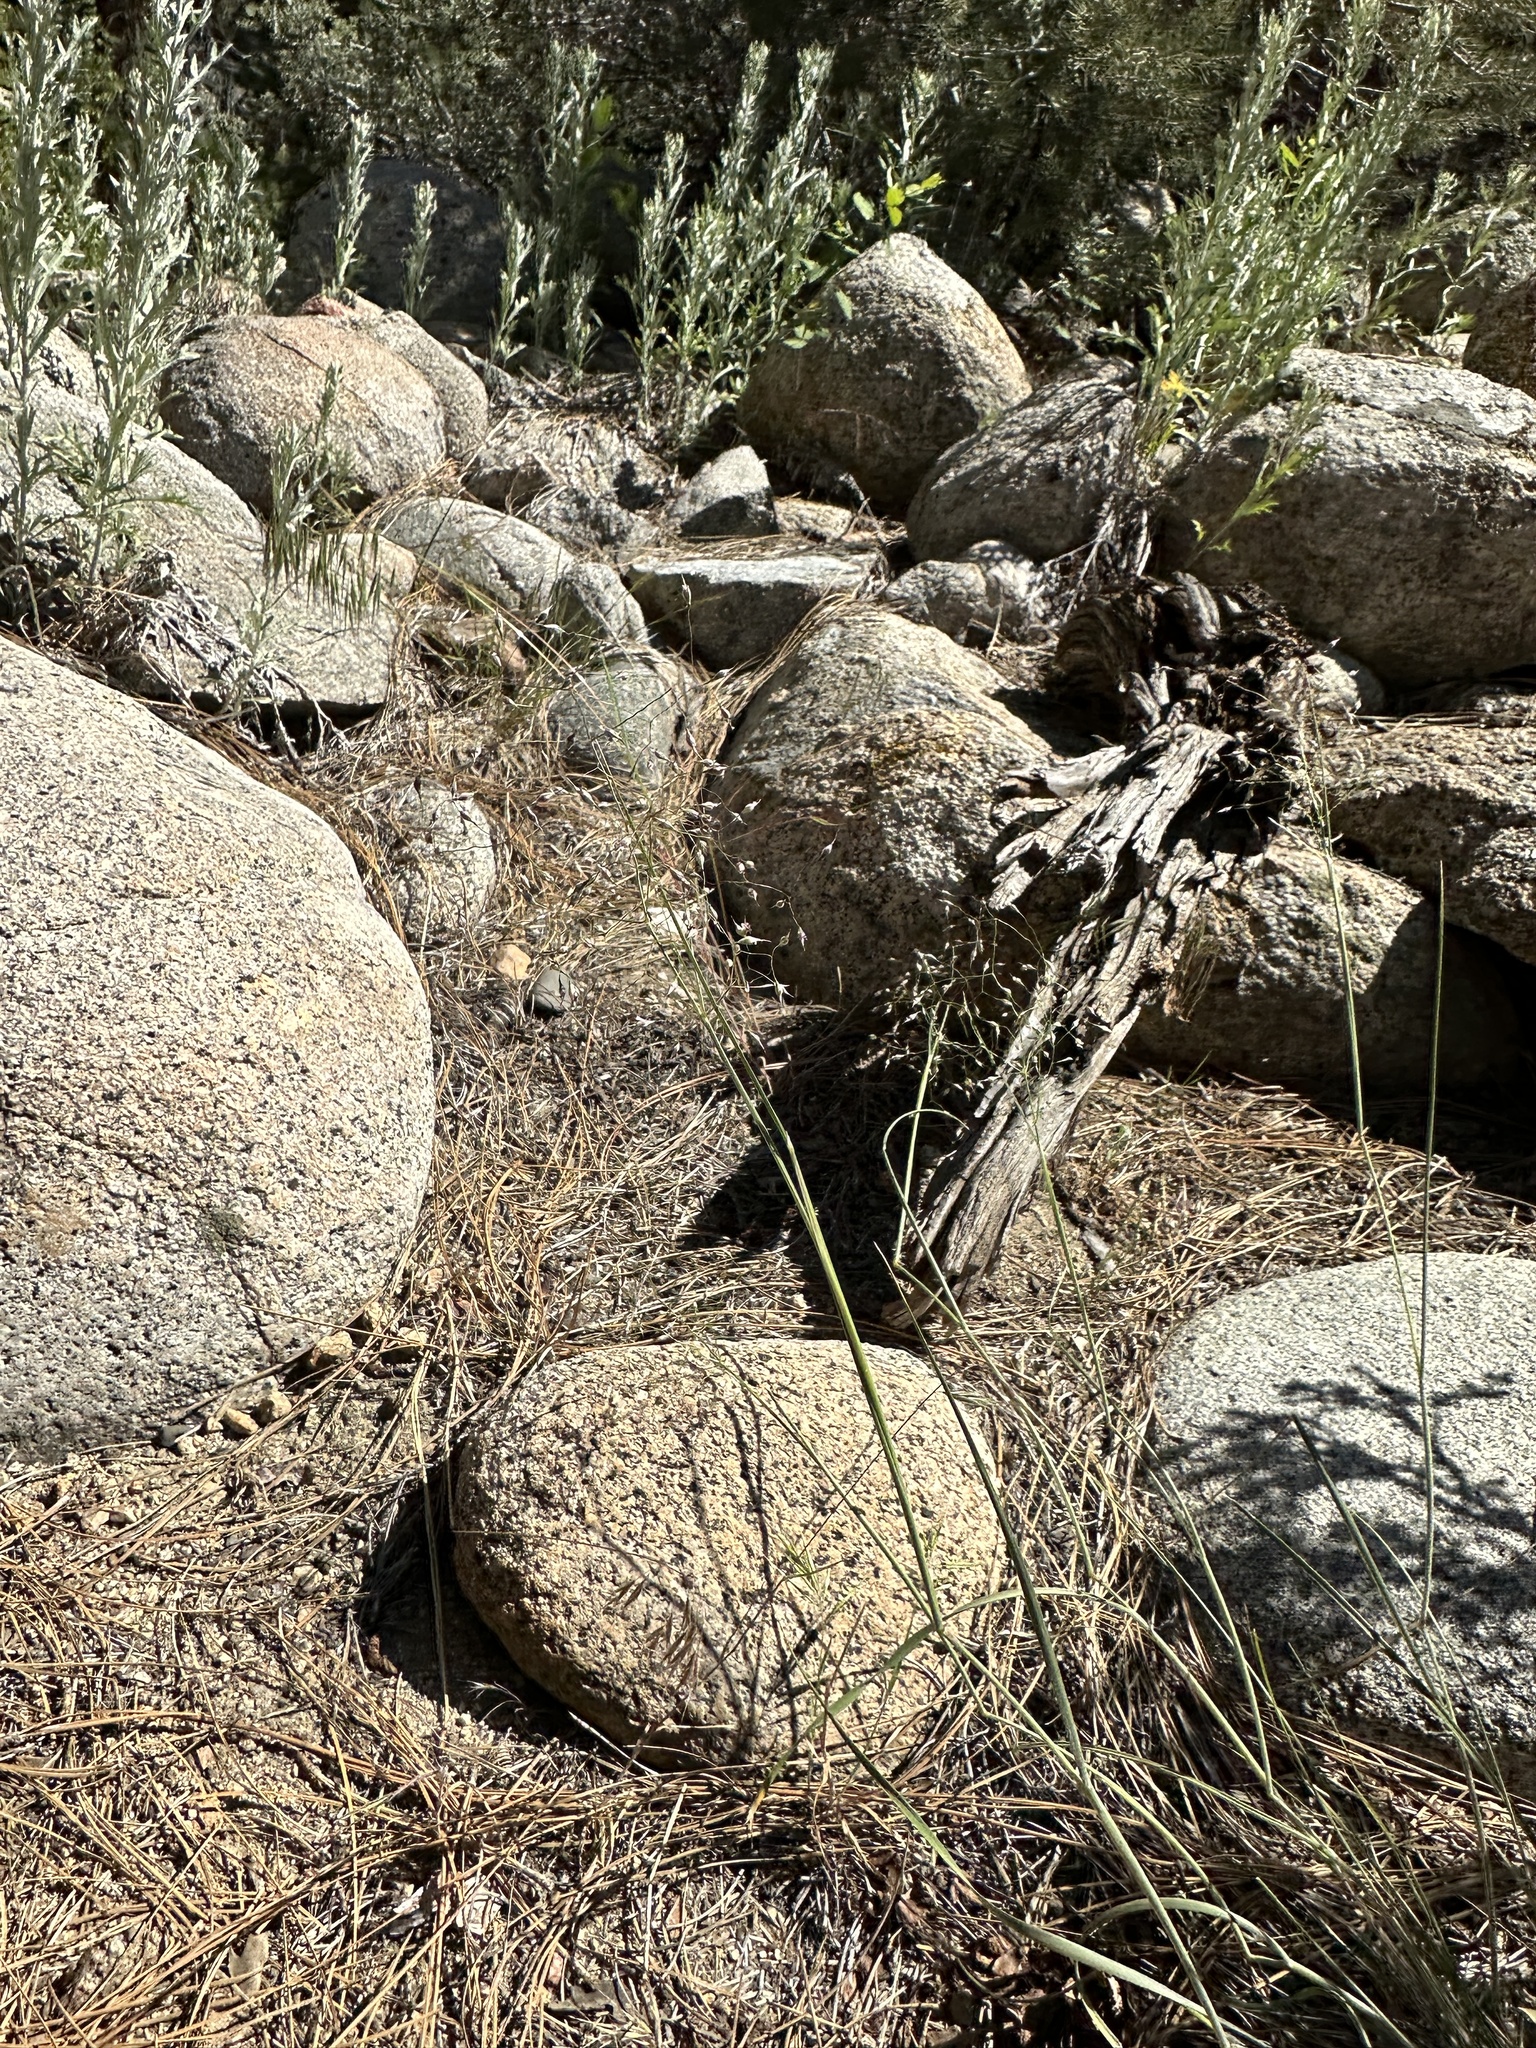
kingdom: Plantae
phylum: Tracheophyta
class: Liliopsida
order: Poales
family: Poaceae
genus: Eriocoma
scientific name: Eriocoma hymenoides
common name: Indian mountain ricegrass
